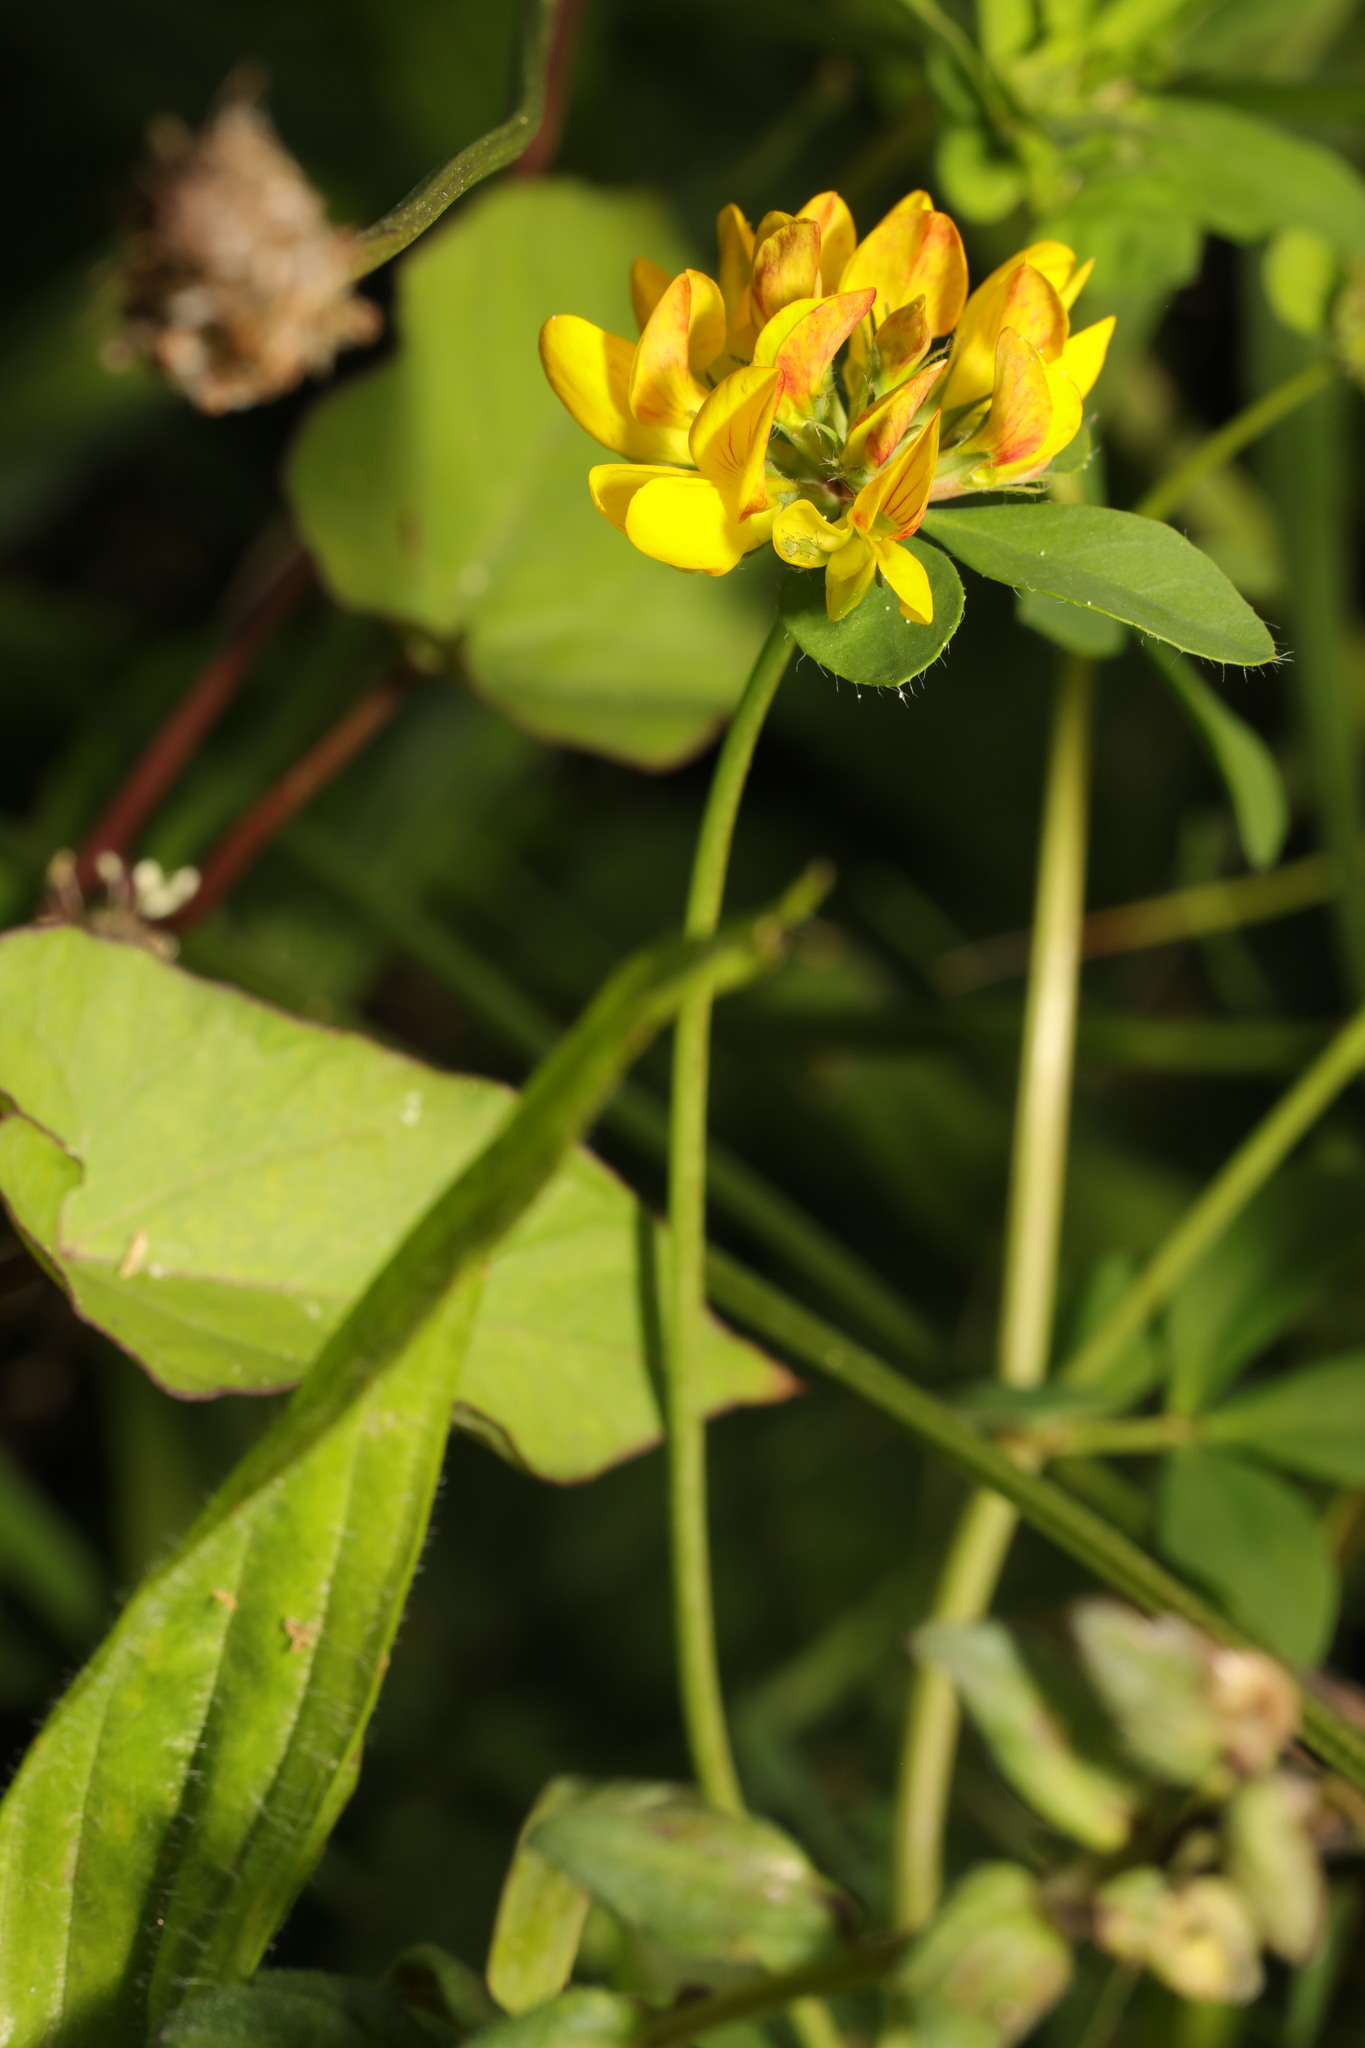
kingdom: Plantae
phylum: Tracheophyta
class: Magnoliopsida
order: Fabales
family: Fabaceae
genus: Lotus
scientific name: Lotus pedunculatus
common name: Greater birdsfoot-trefoil
